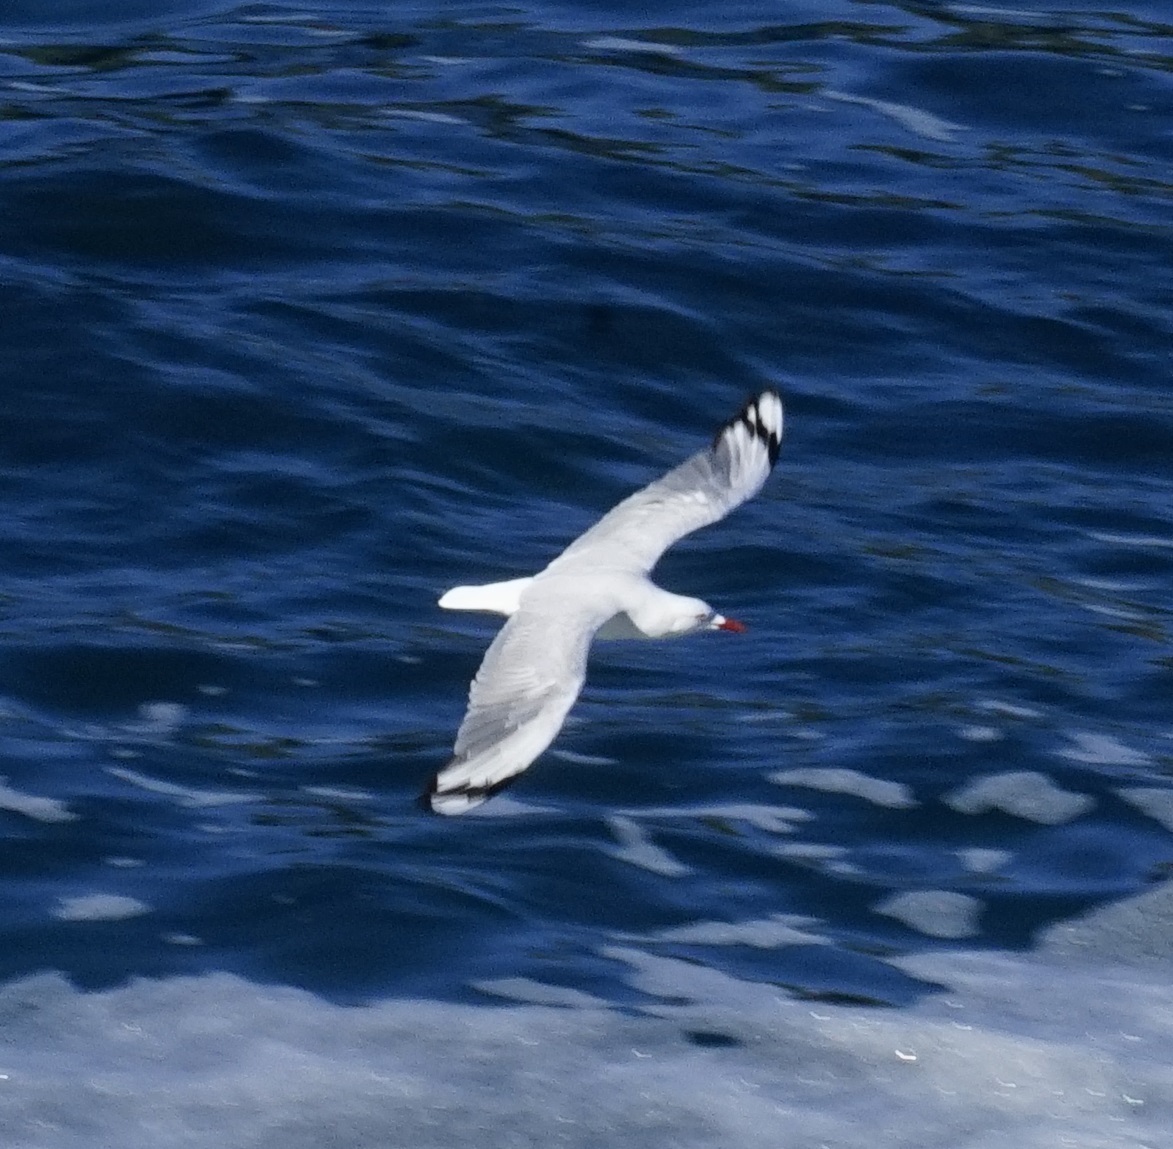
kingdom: Animalia
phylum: Chordata
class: Aves
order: Charadriiformes
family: Laridae
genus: Chroicocephalus
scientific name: Chroicocephalus novaehollandiae
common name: Silver gull
